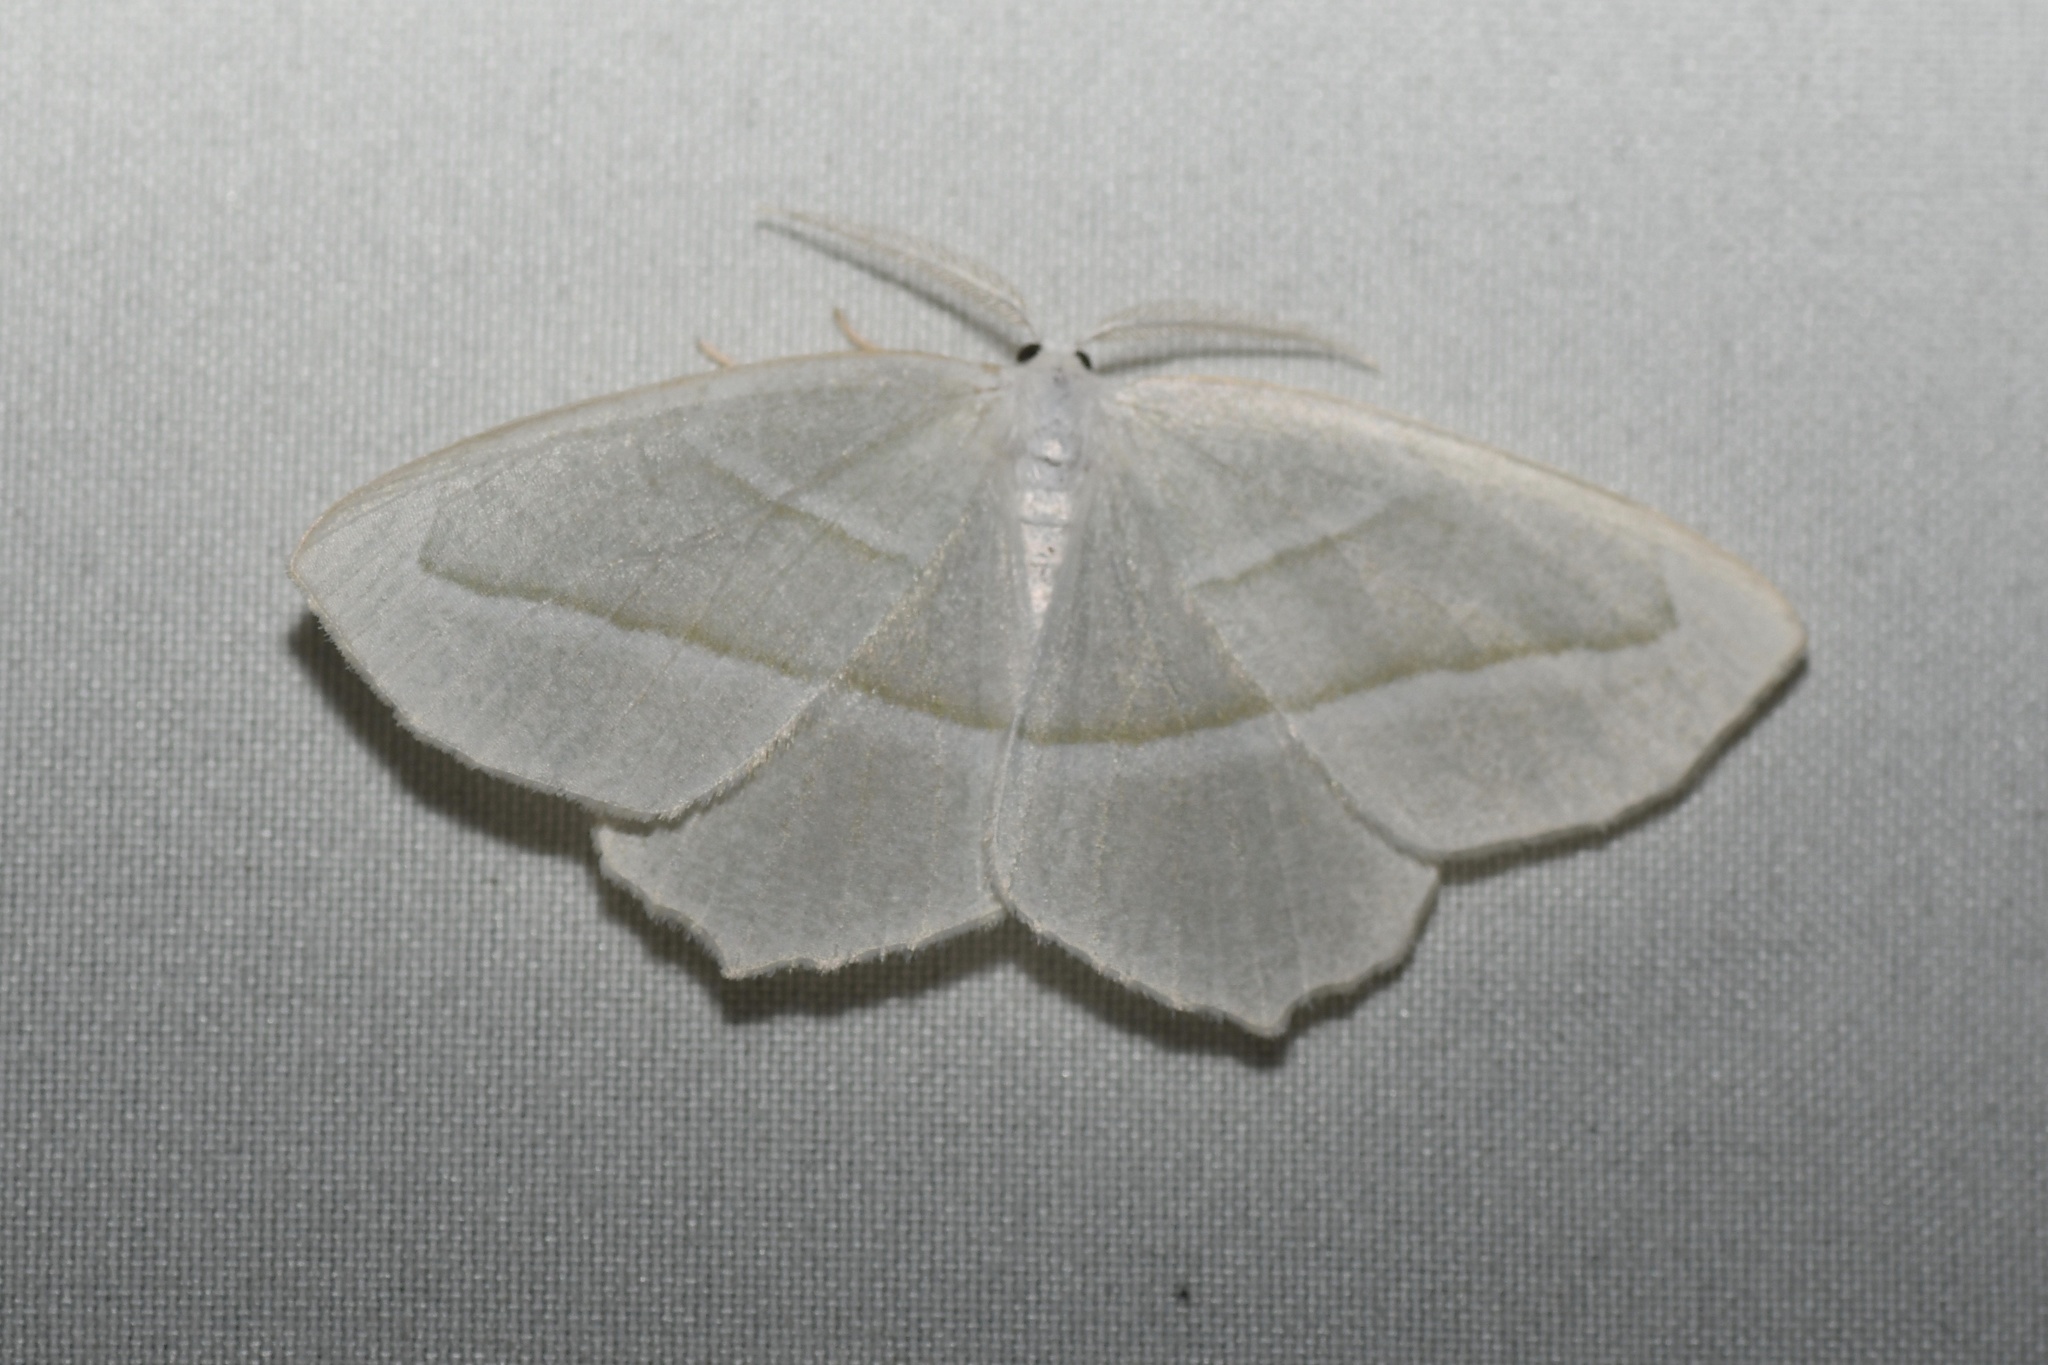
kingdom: Animalia
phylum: Arthropoda
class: Insecta
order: Lepidoptera
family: Geometridae
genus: Campaea
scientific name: Campaea perlata
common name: Fringed looper
